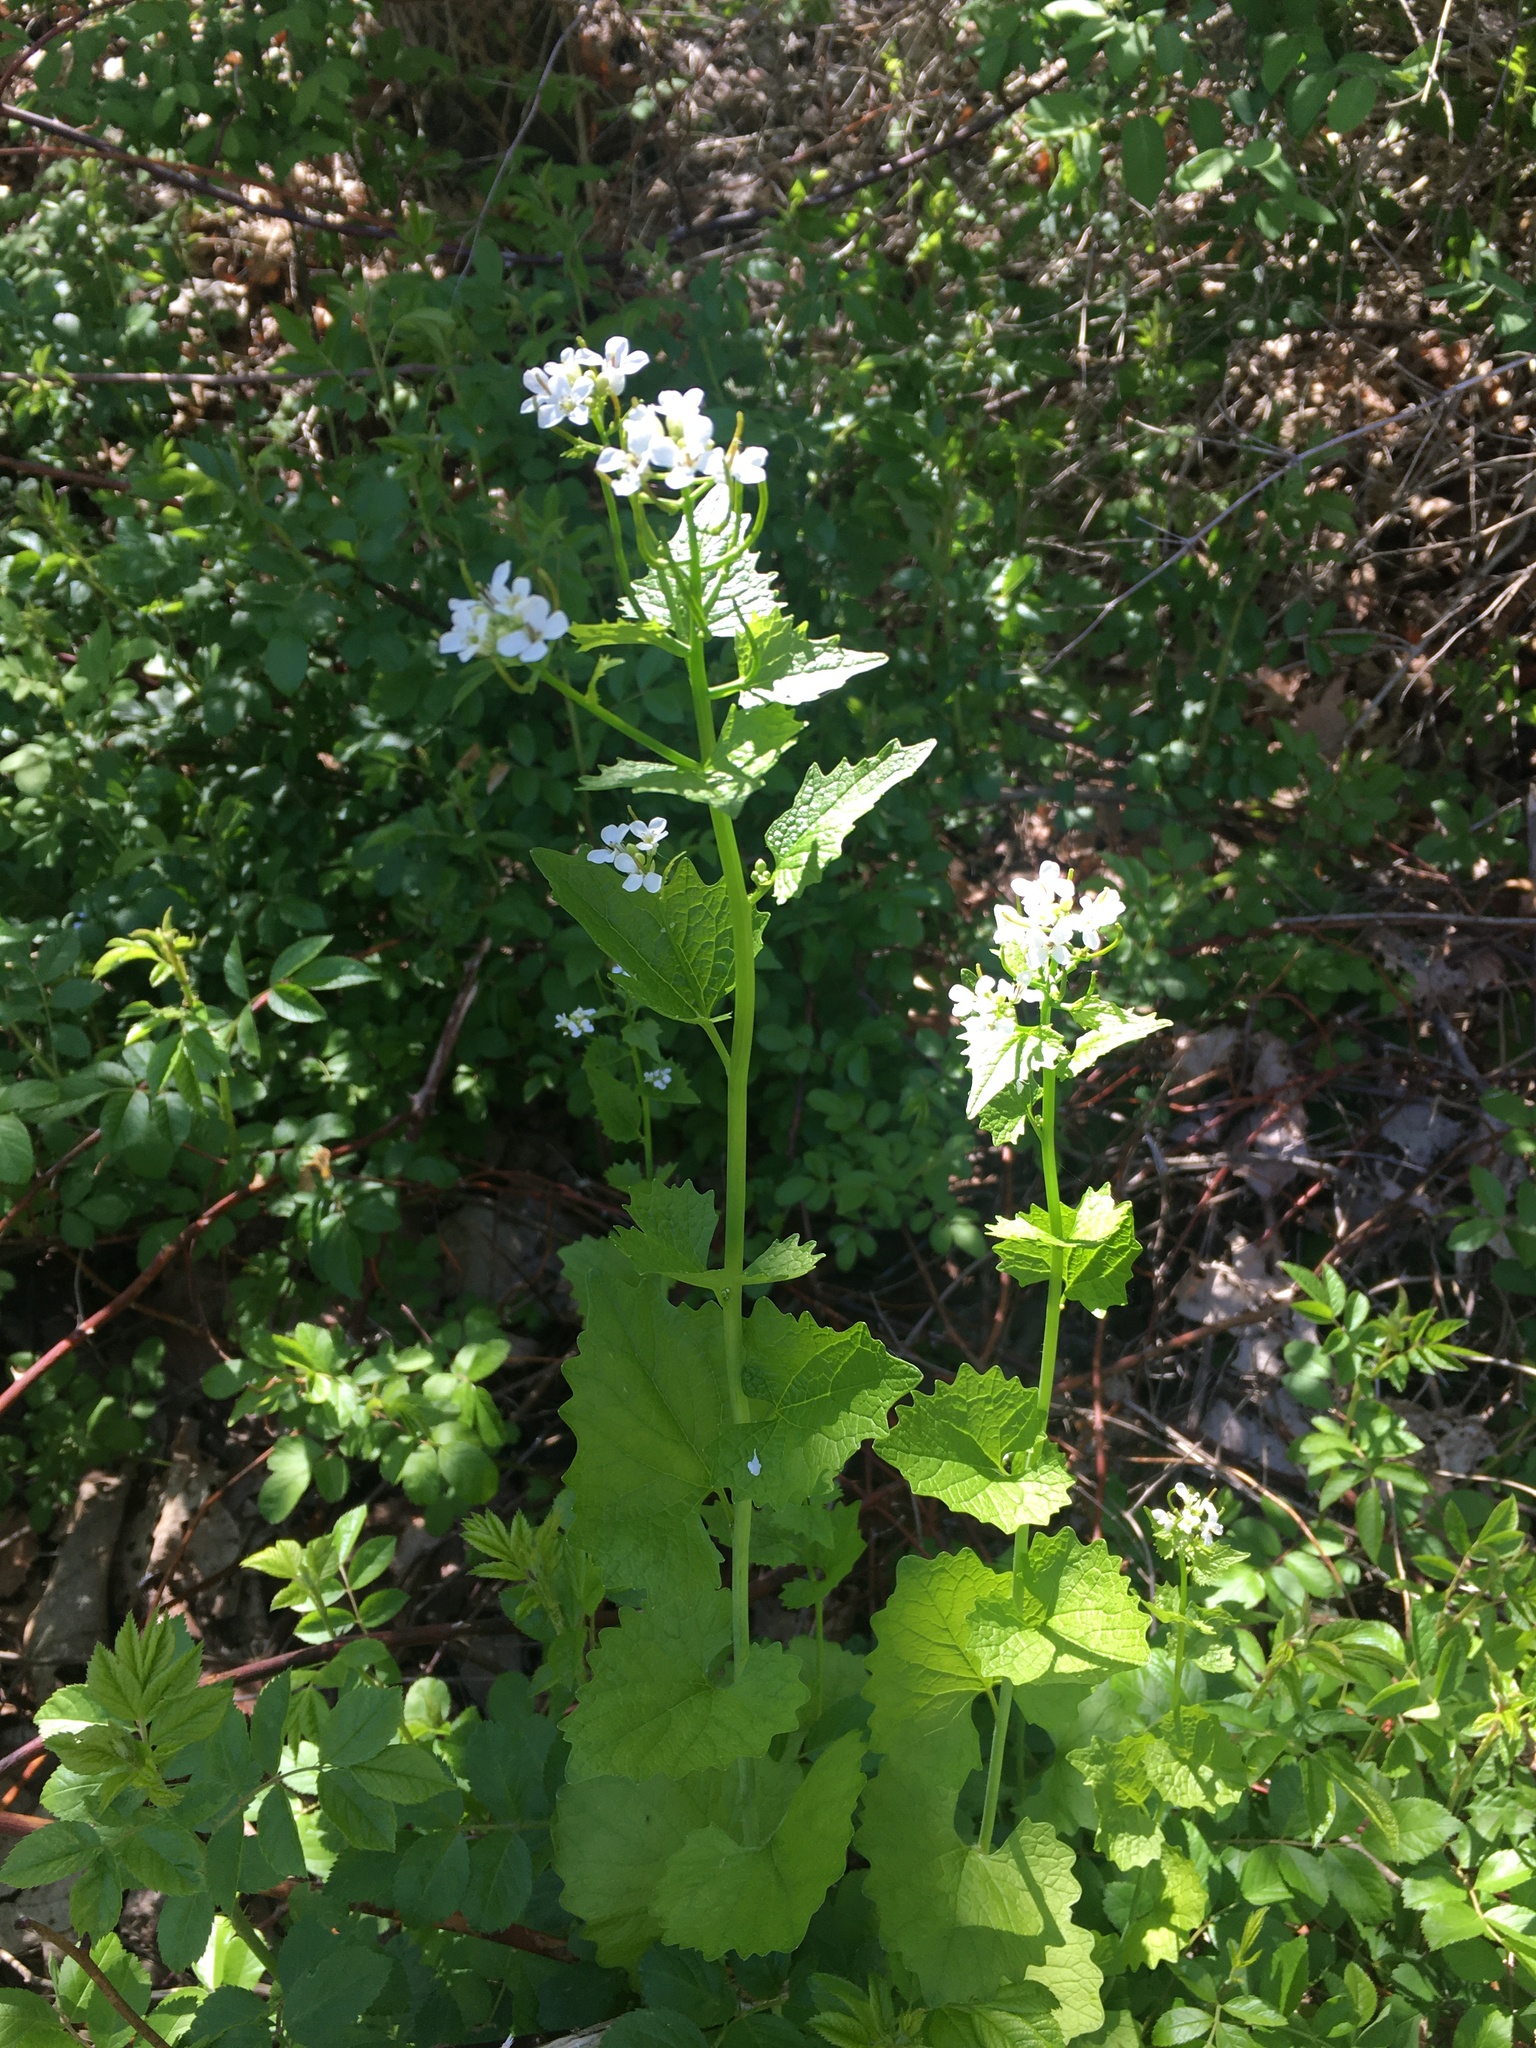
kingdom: Plantae
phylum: Tracheophyta
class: Magnoliopsida
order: Brassicales
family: Brassicaceae
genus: Alliaria
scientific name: Alliaria petiolata
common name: Garlic mustard
